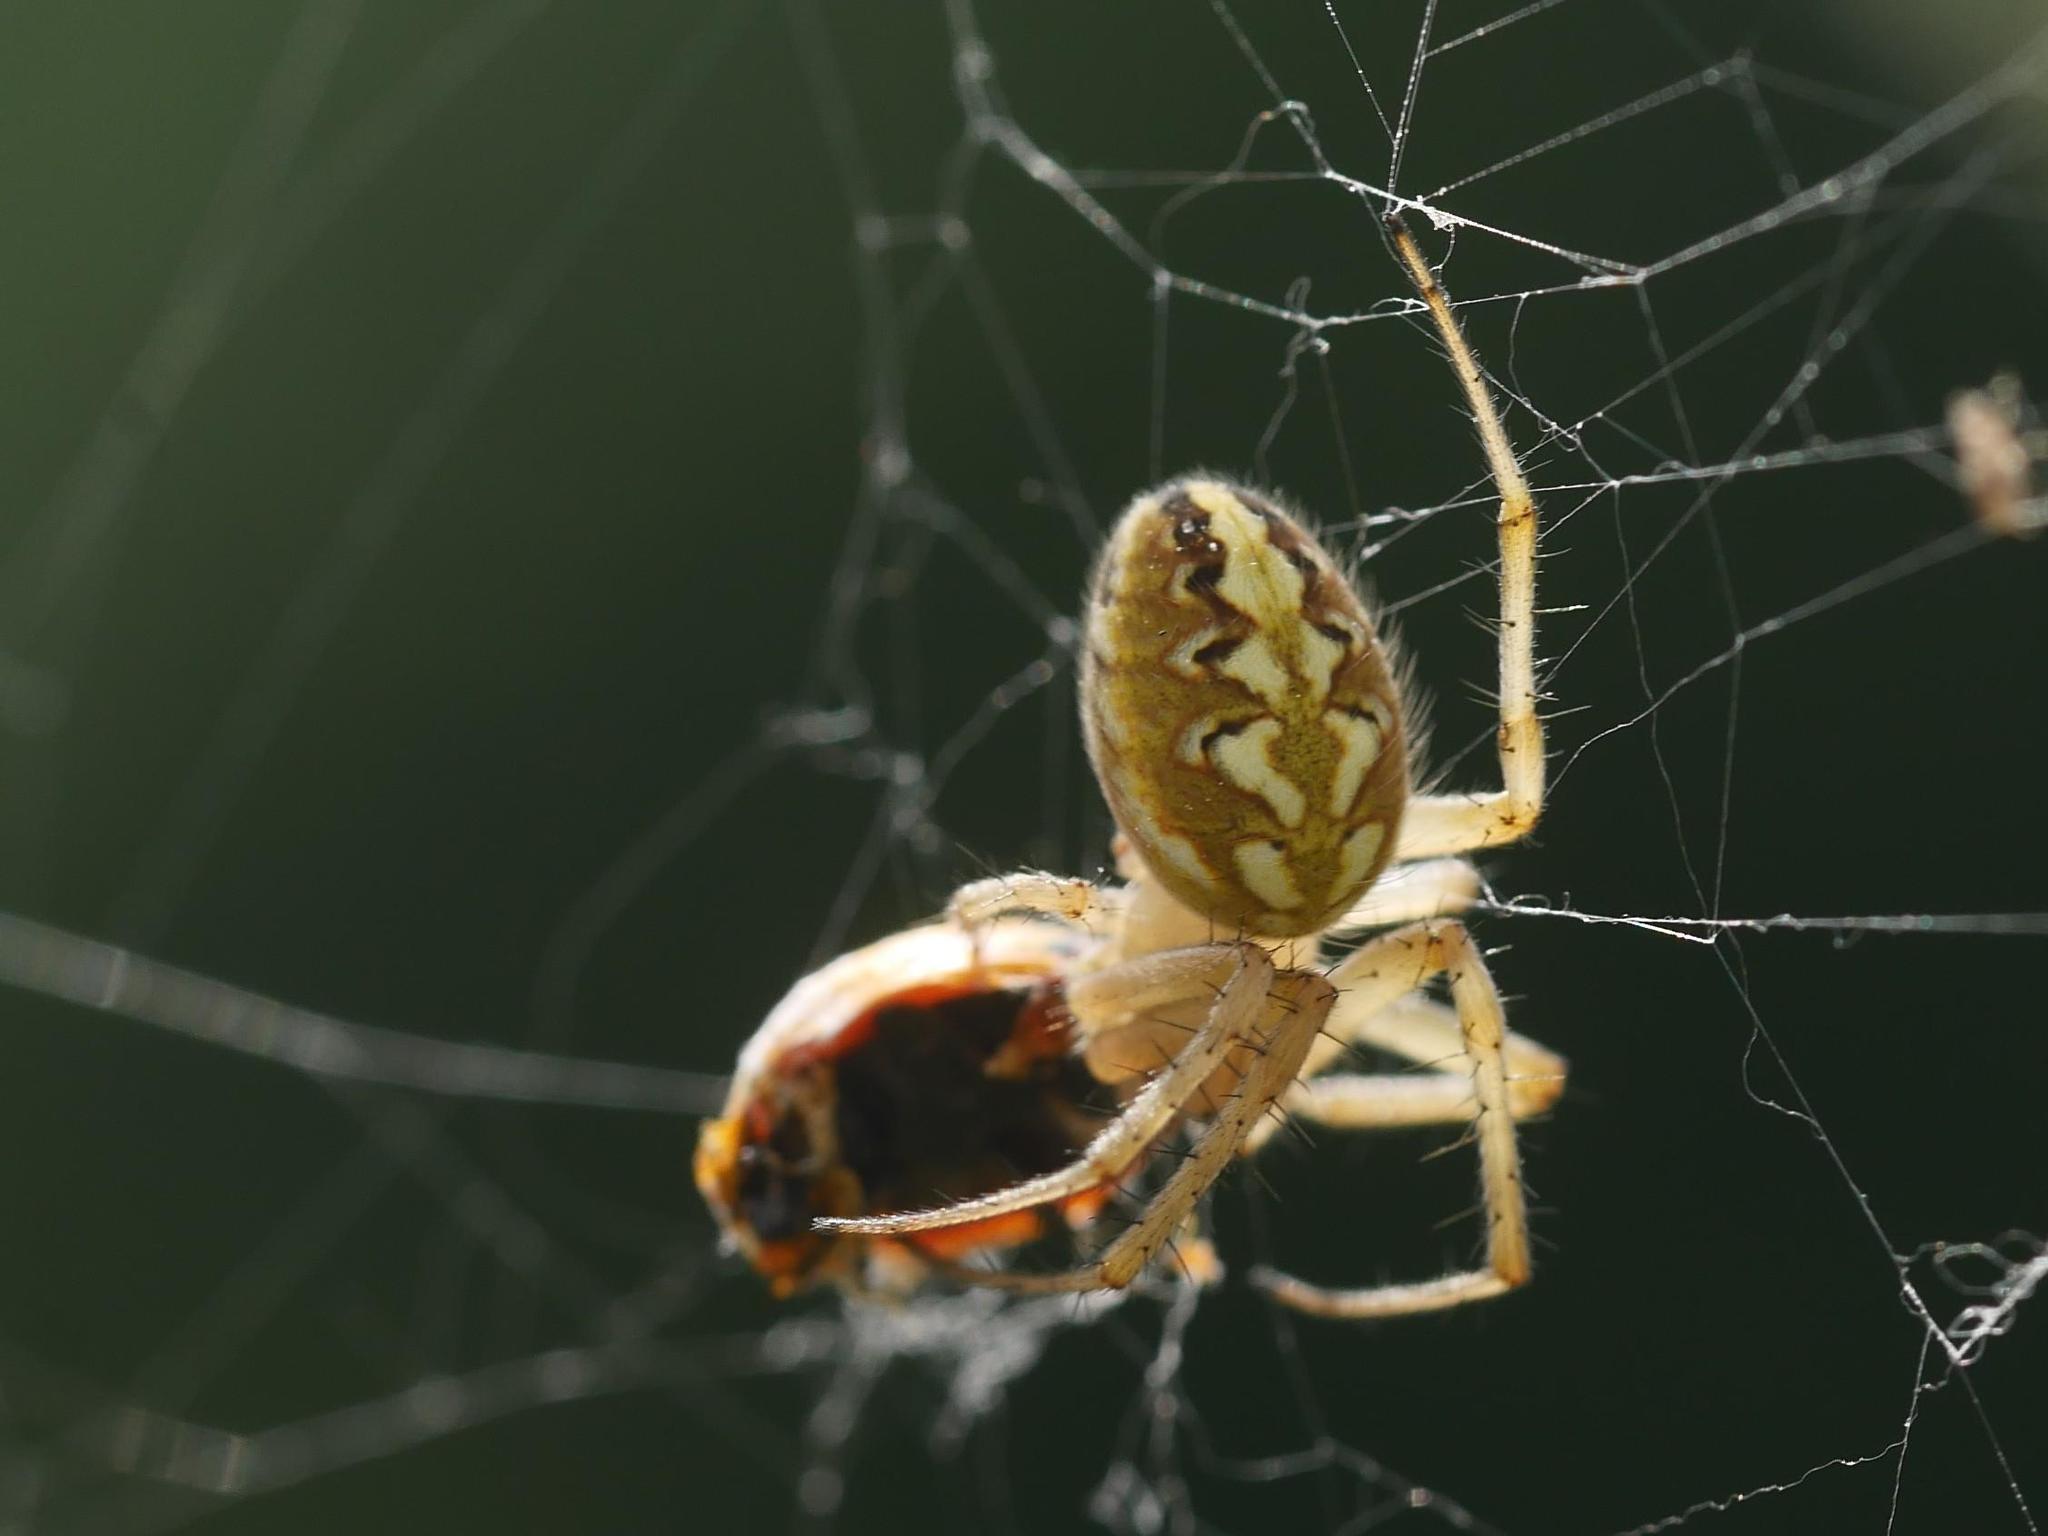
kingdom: Animalia
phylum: Arthropoda
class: Arachnida
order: Araneae
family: Araneidae
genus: Neoscona
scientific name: Neoscona adianta
